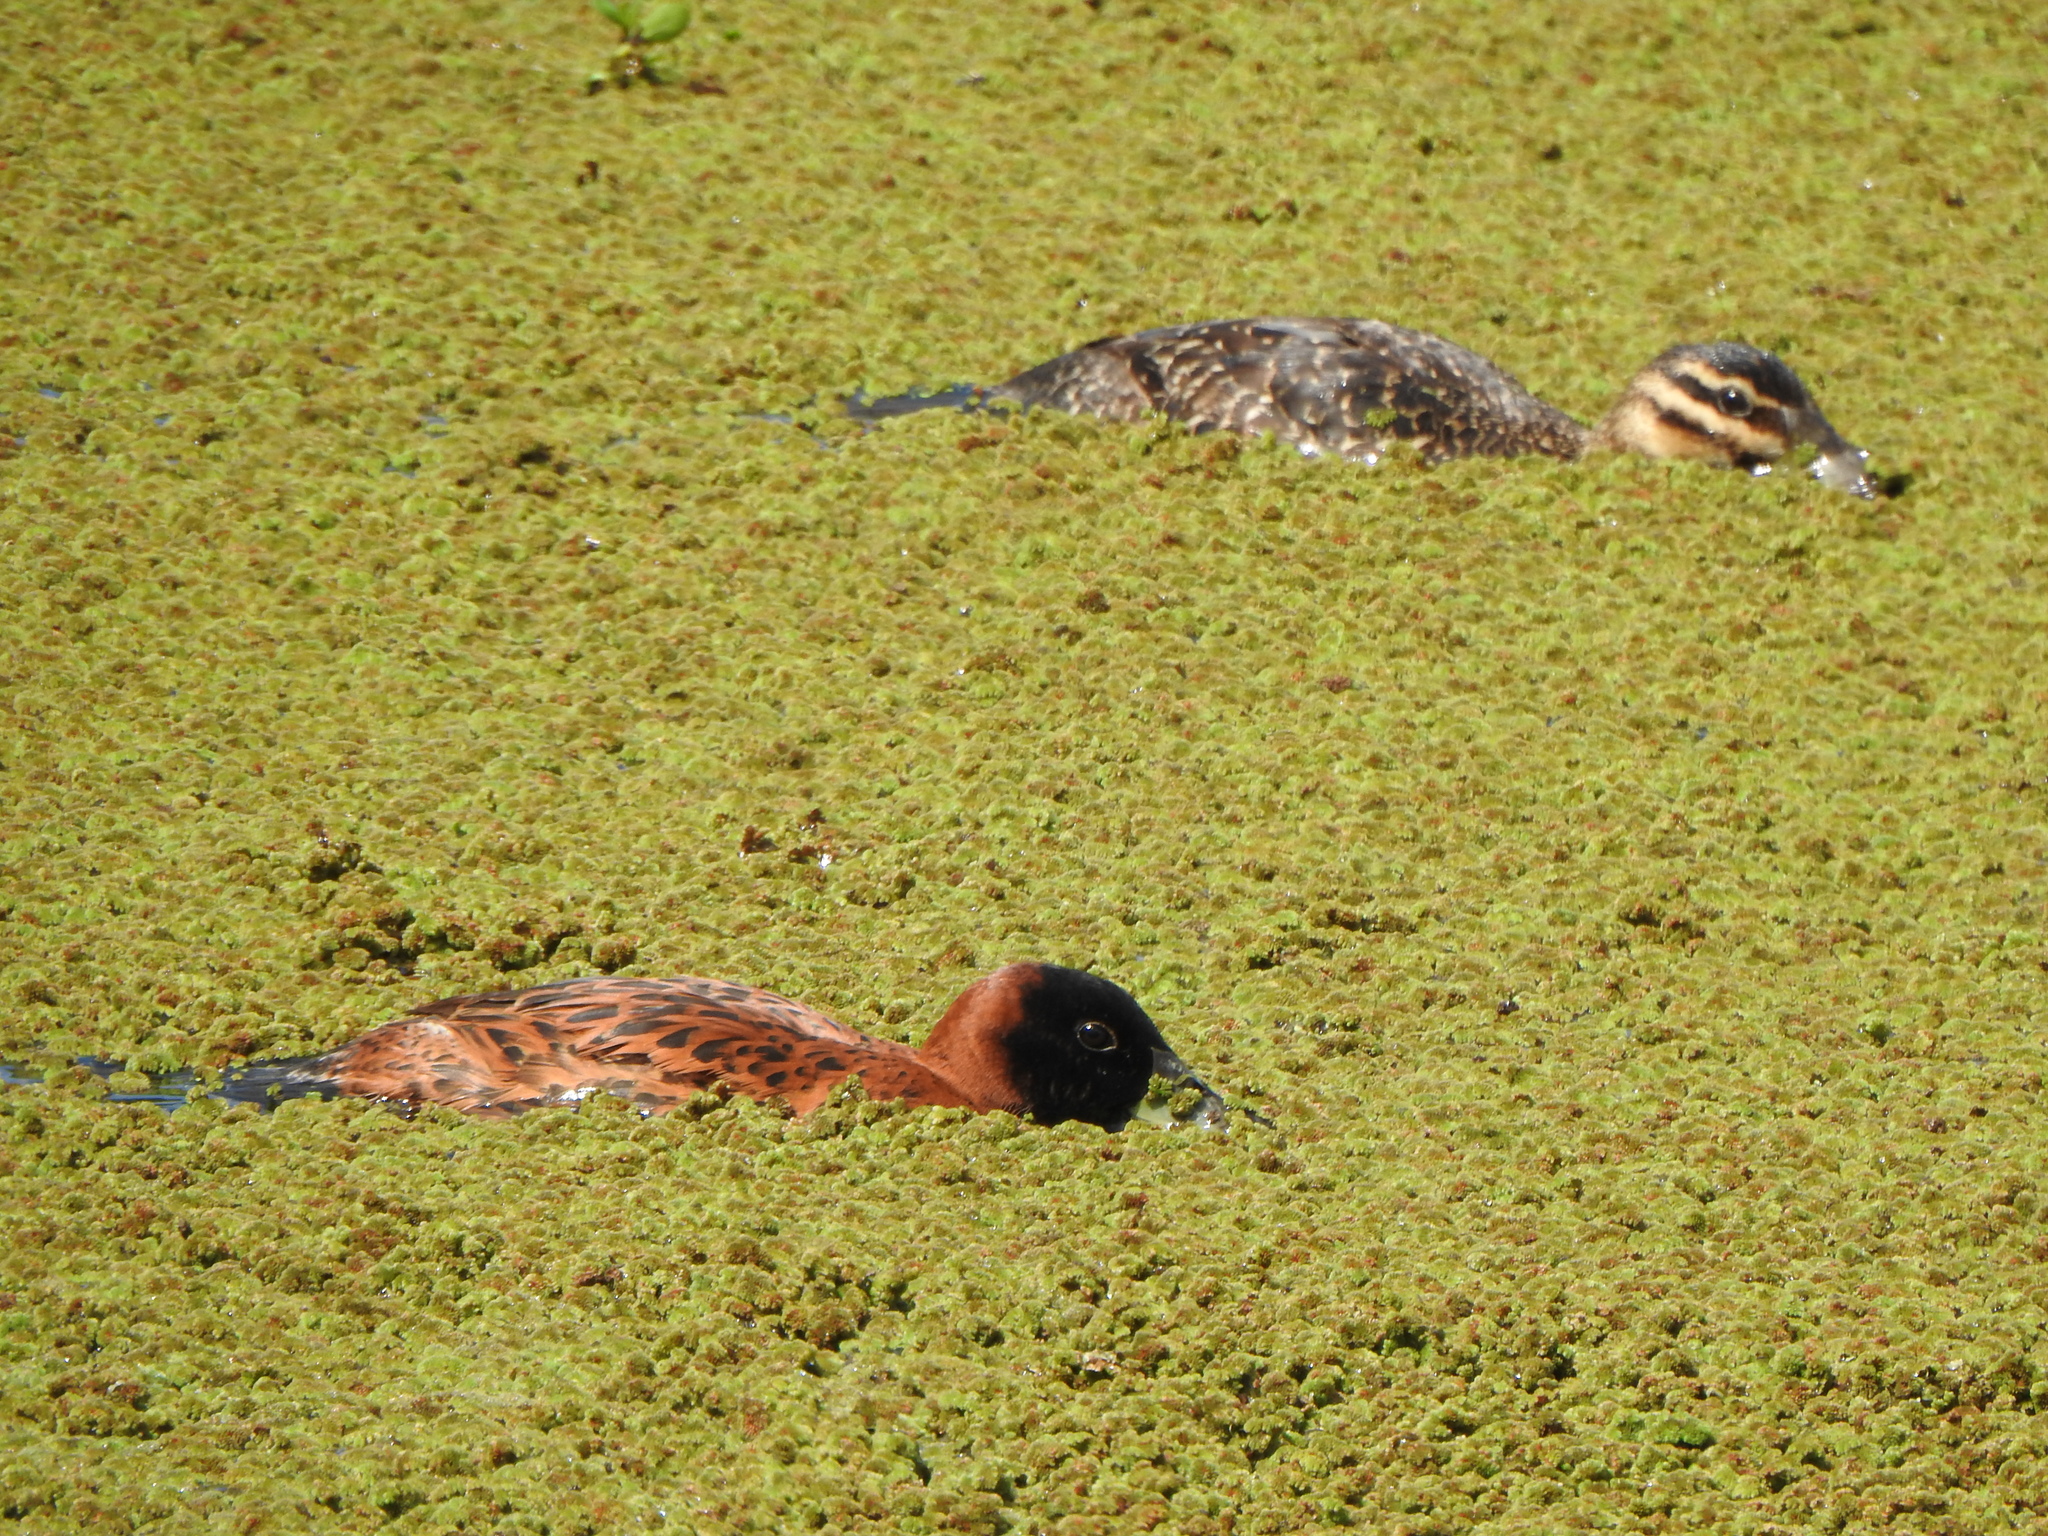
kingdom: Animalia
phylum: Chordata
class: Aves
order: Anseriformes
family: Anatidae
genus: Nomonyx
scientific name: Nomonyx dominicus
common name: Masked duck
